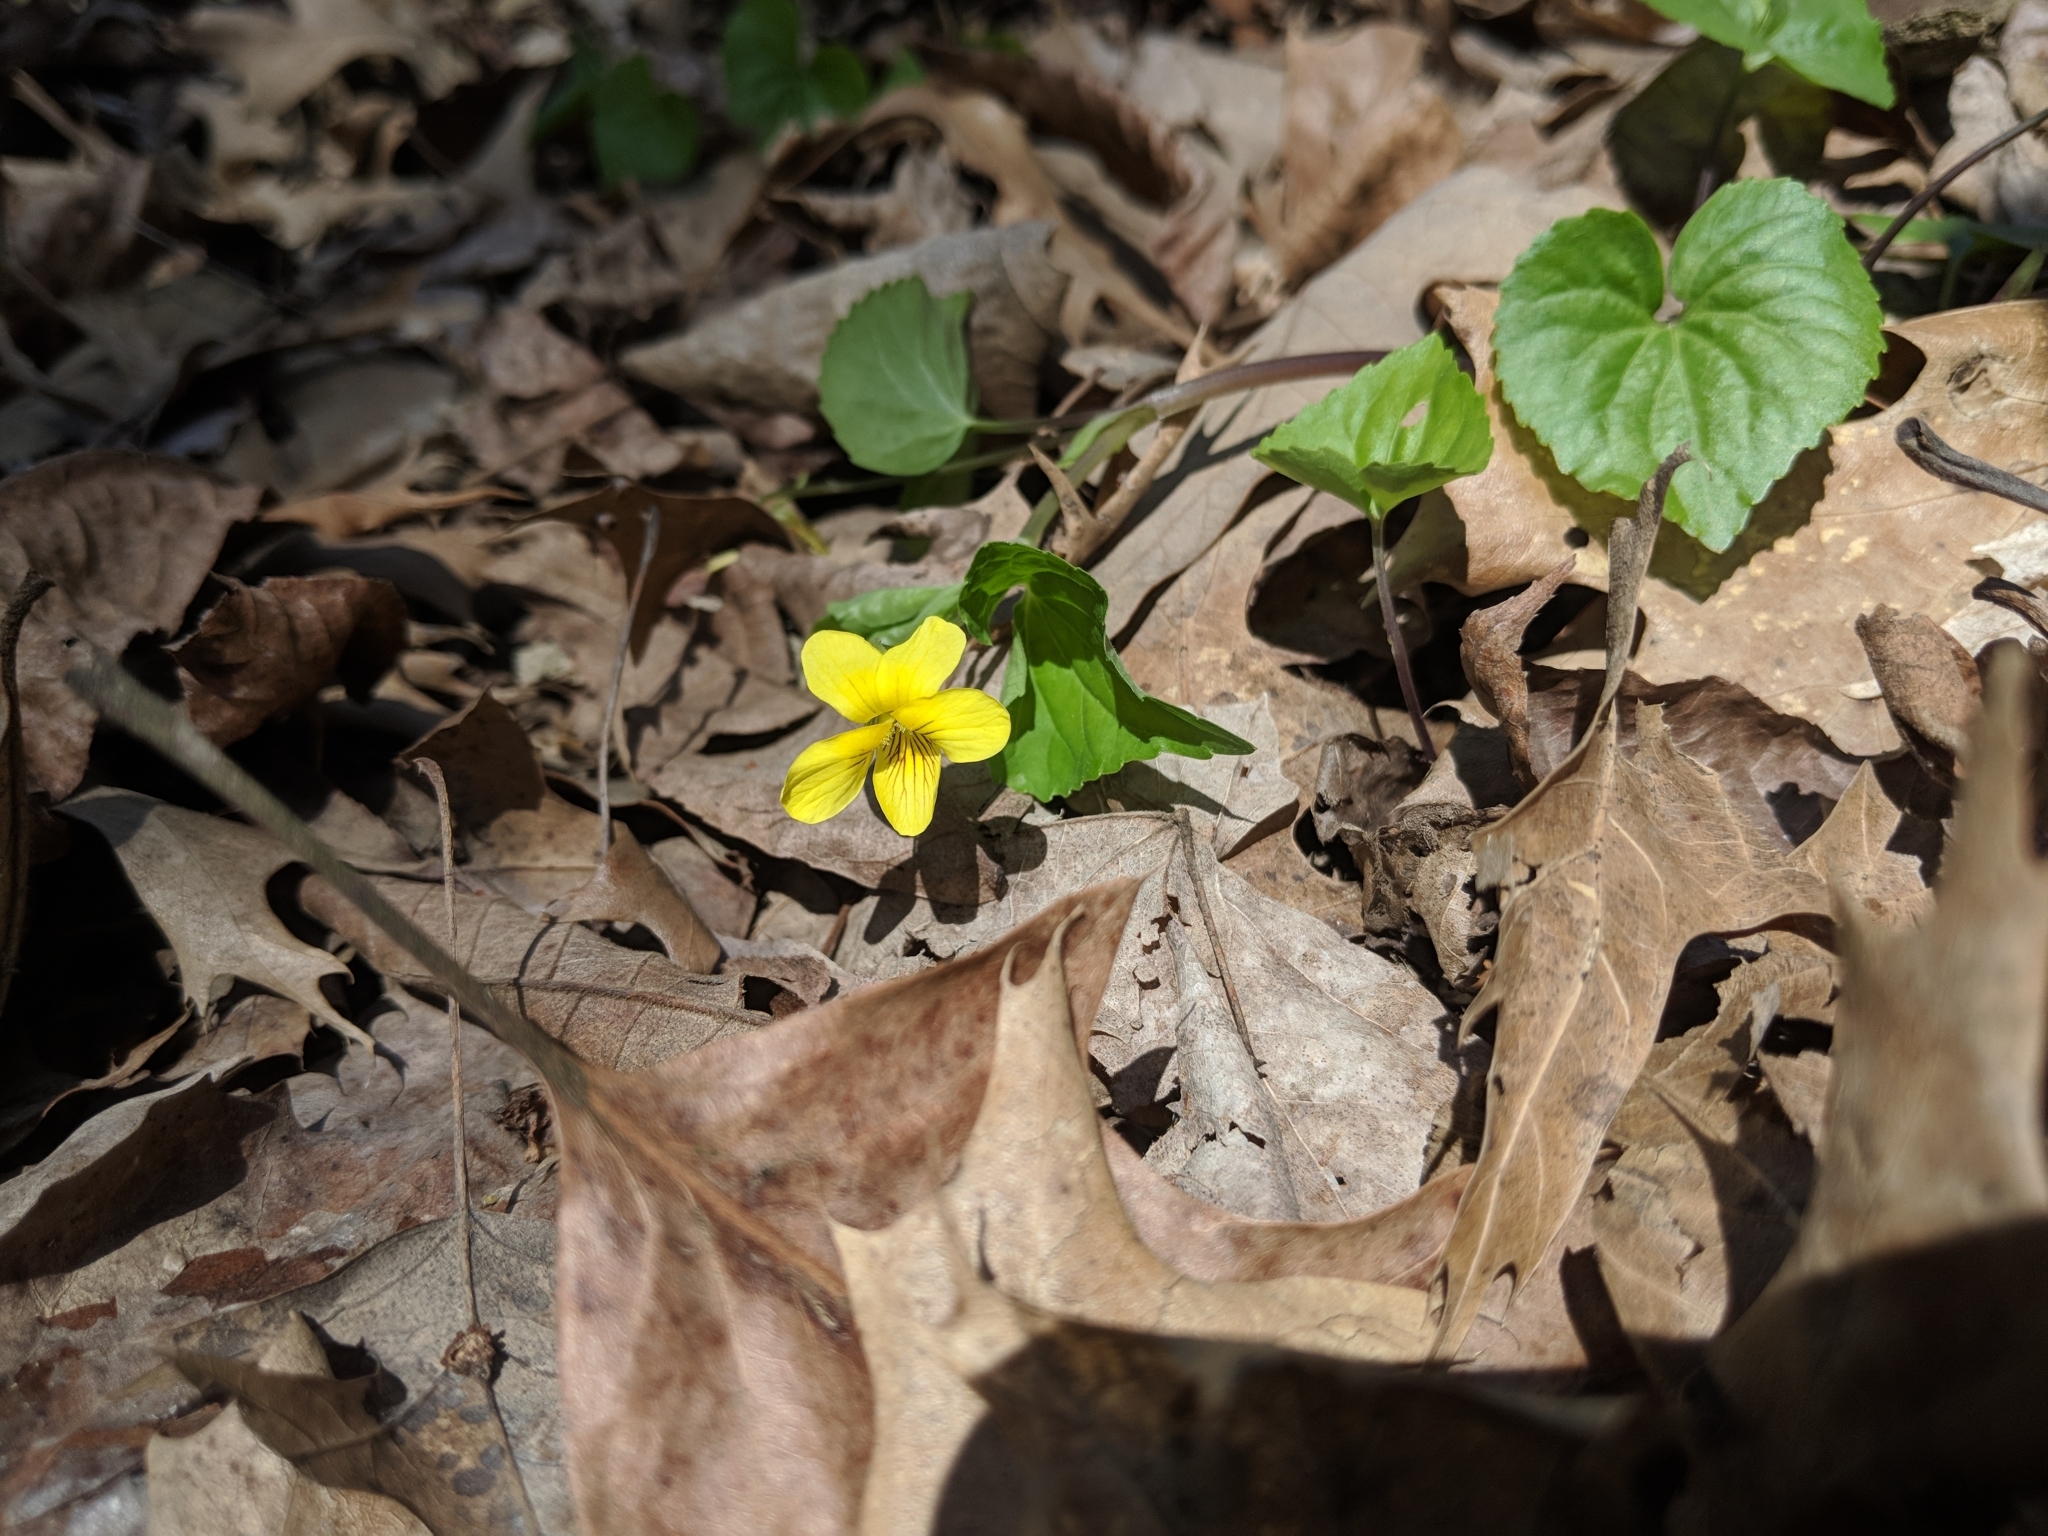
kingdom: Plantae
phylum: Tracheophyta
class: Magnoliopsida
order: Malpighiales
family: Violaceae
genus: Viola
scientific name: Viola eriocarpa
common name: Smooth yellow violet
